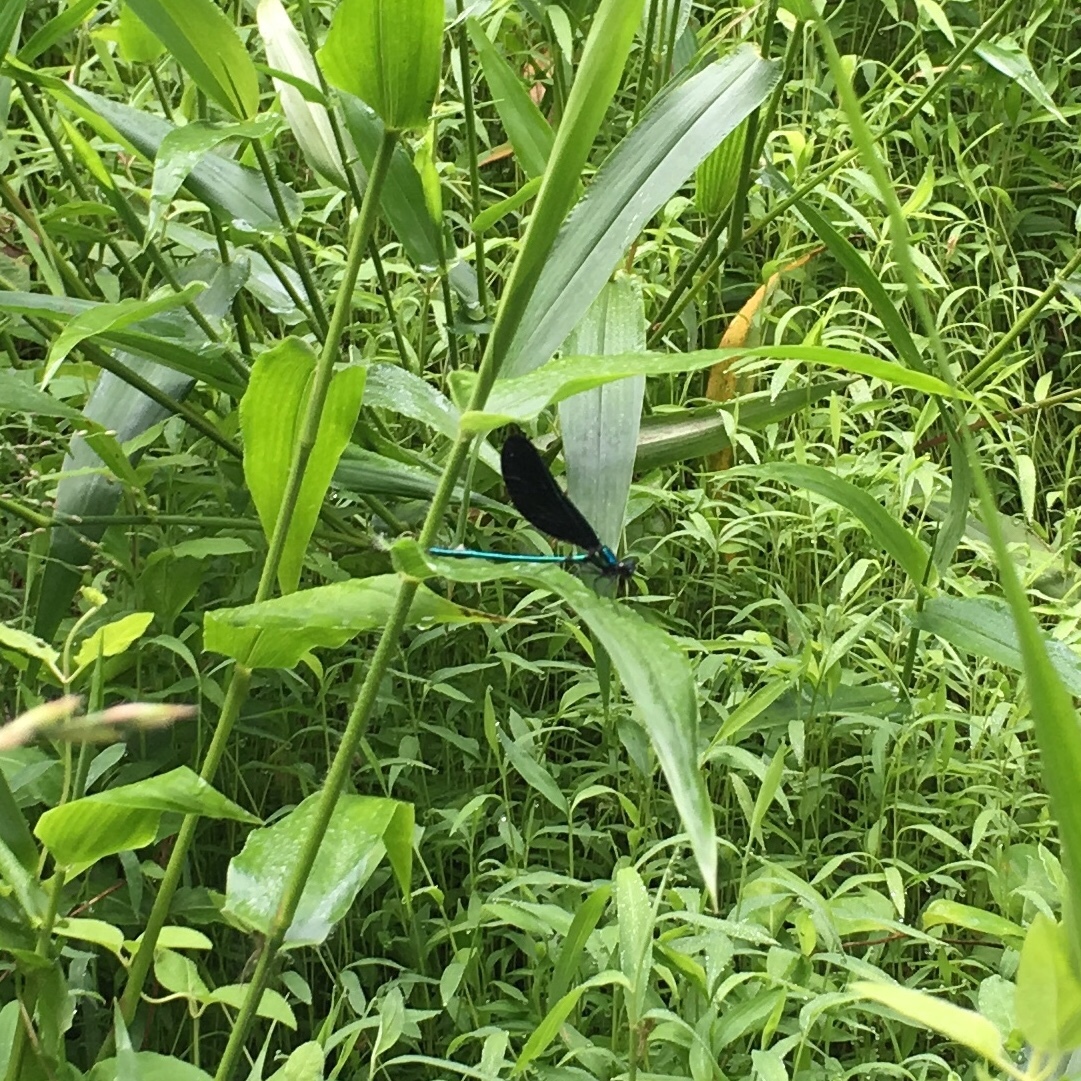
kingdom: Animalia
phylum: Arthropoda
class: Insecta
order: Odonata
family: Calopterygidae
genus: Calopteryx
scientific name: Calopteryx maculata
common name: Ebony jewelwing
